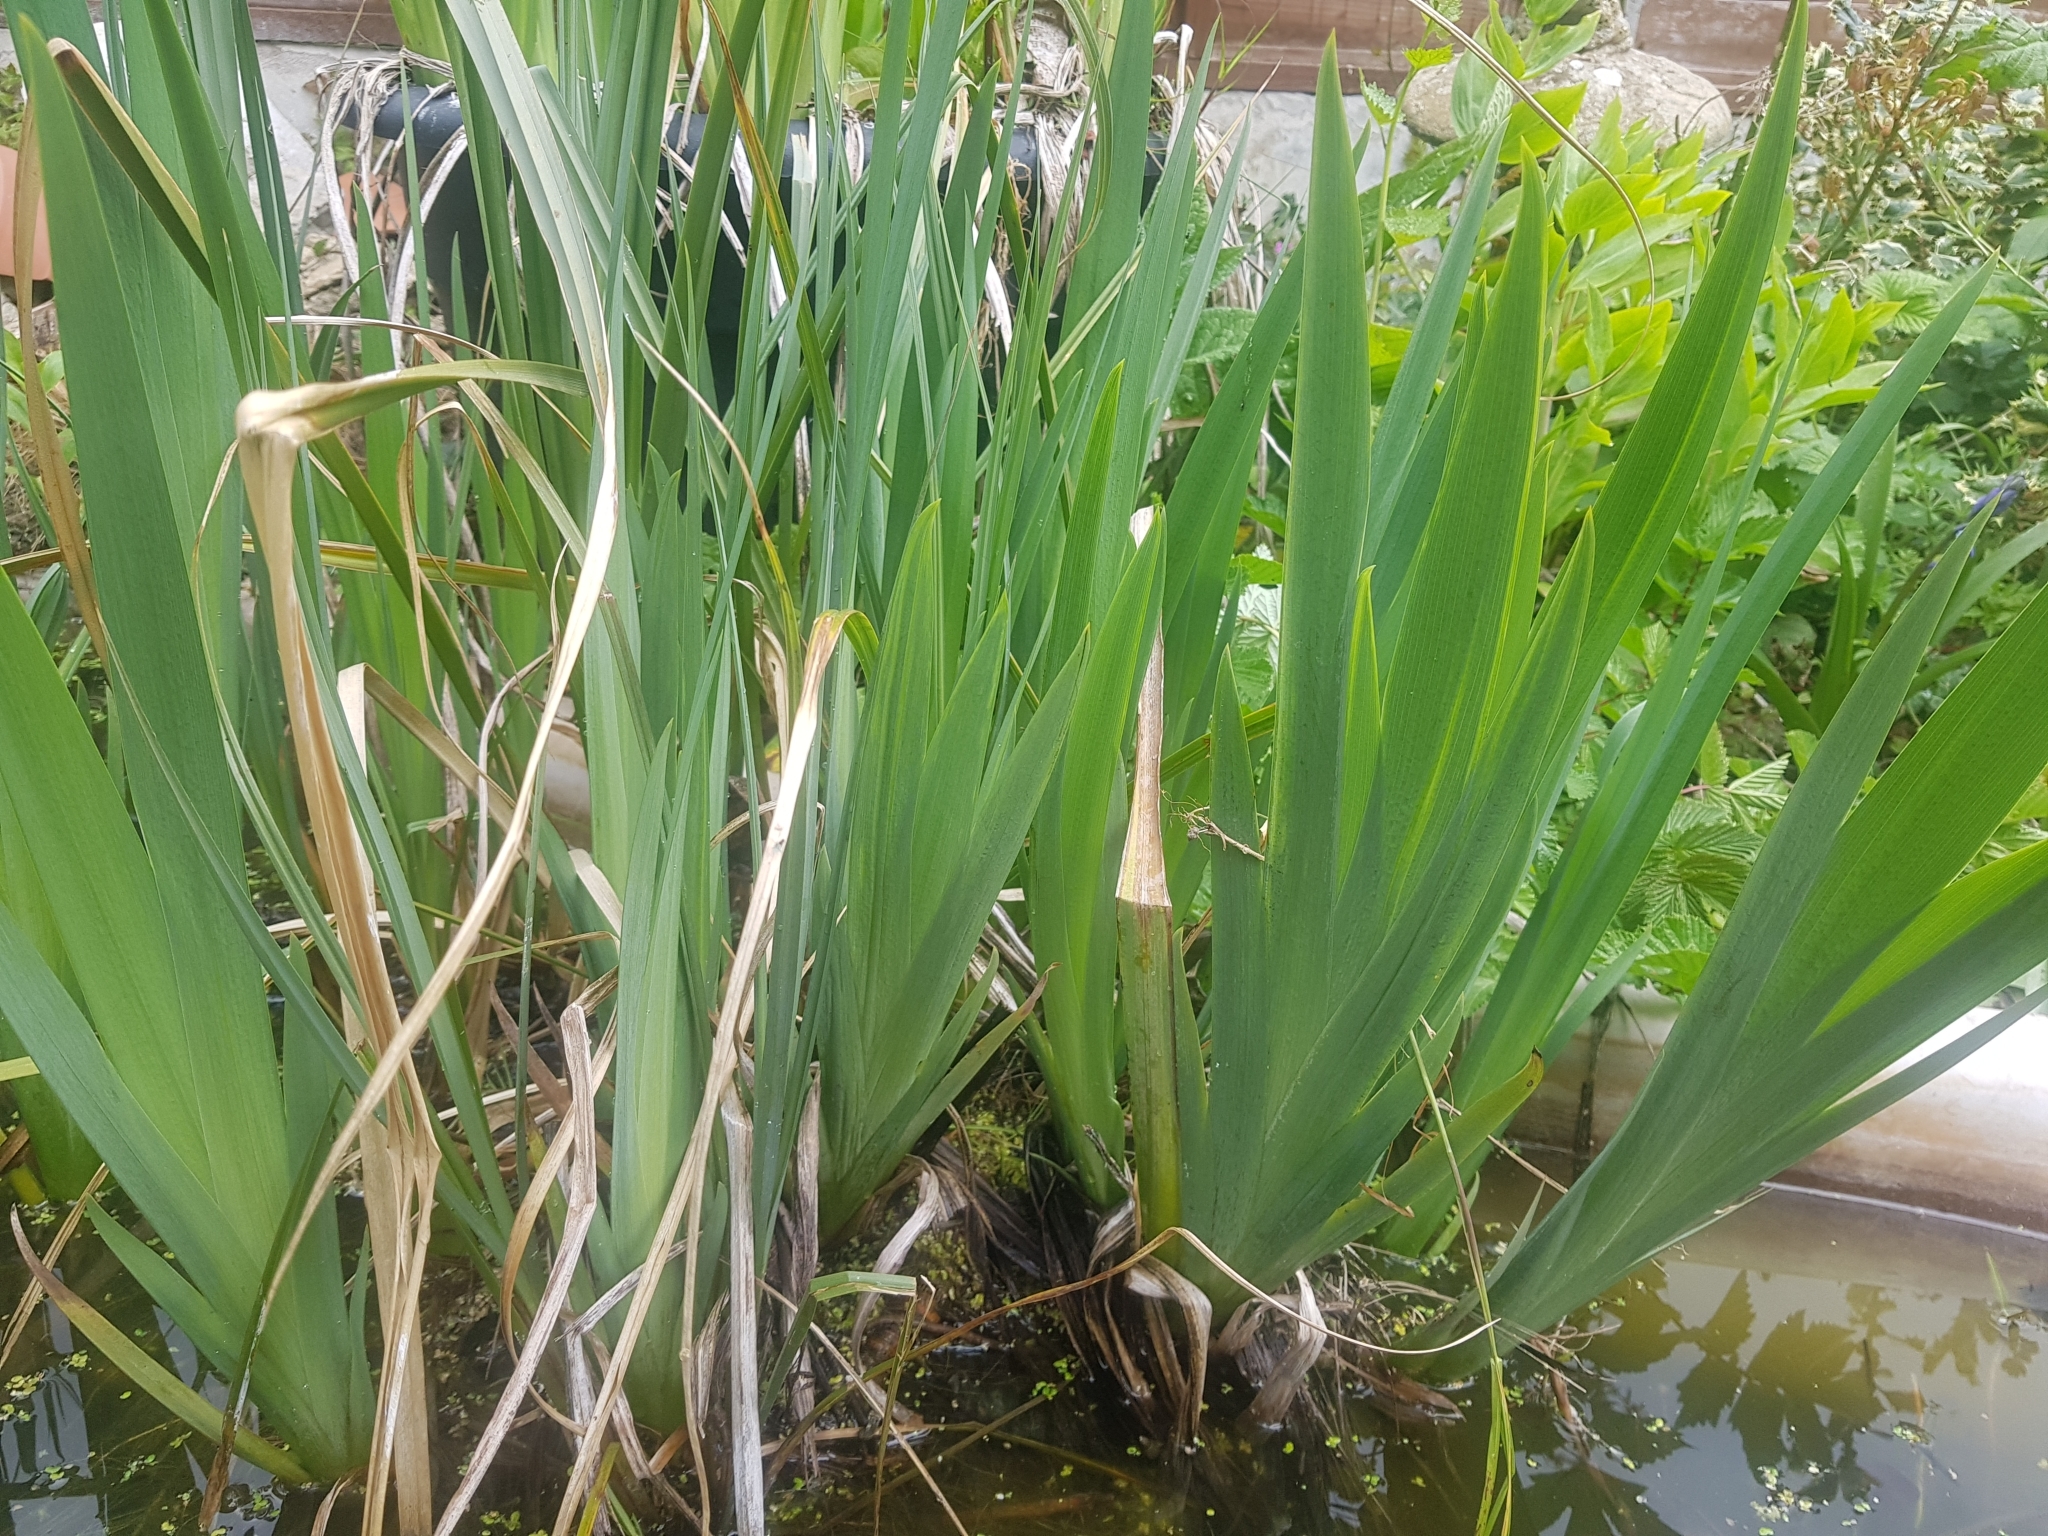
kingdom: Plantae
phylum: Tracheophyta
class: Liliopsida
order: Asparagales
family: Iridaceae
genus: Iris
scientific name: Iris pseudacorus
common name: Yellow flag
